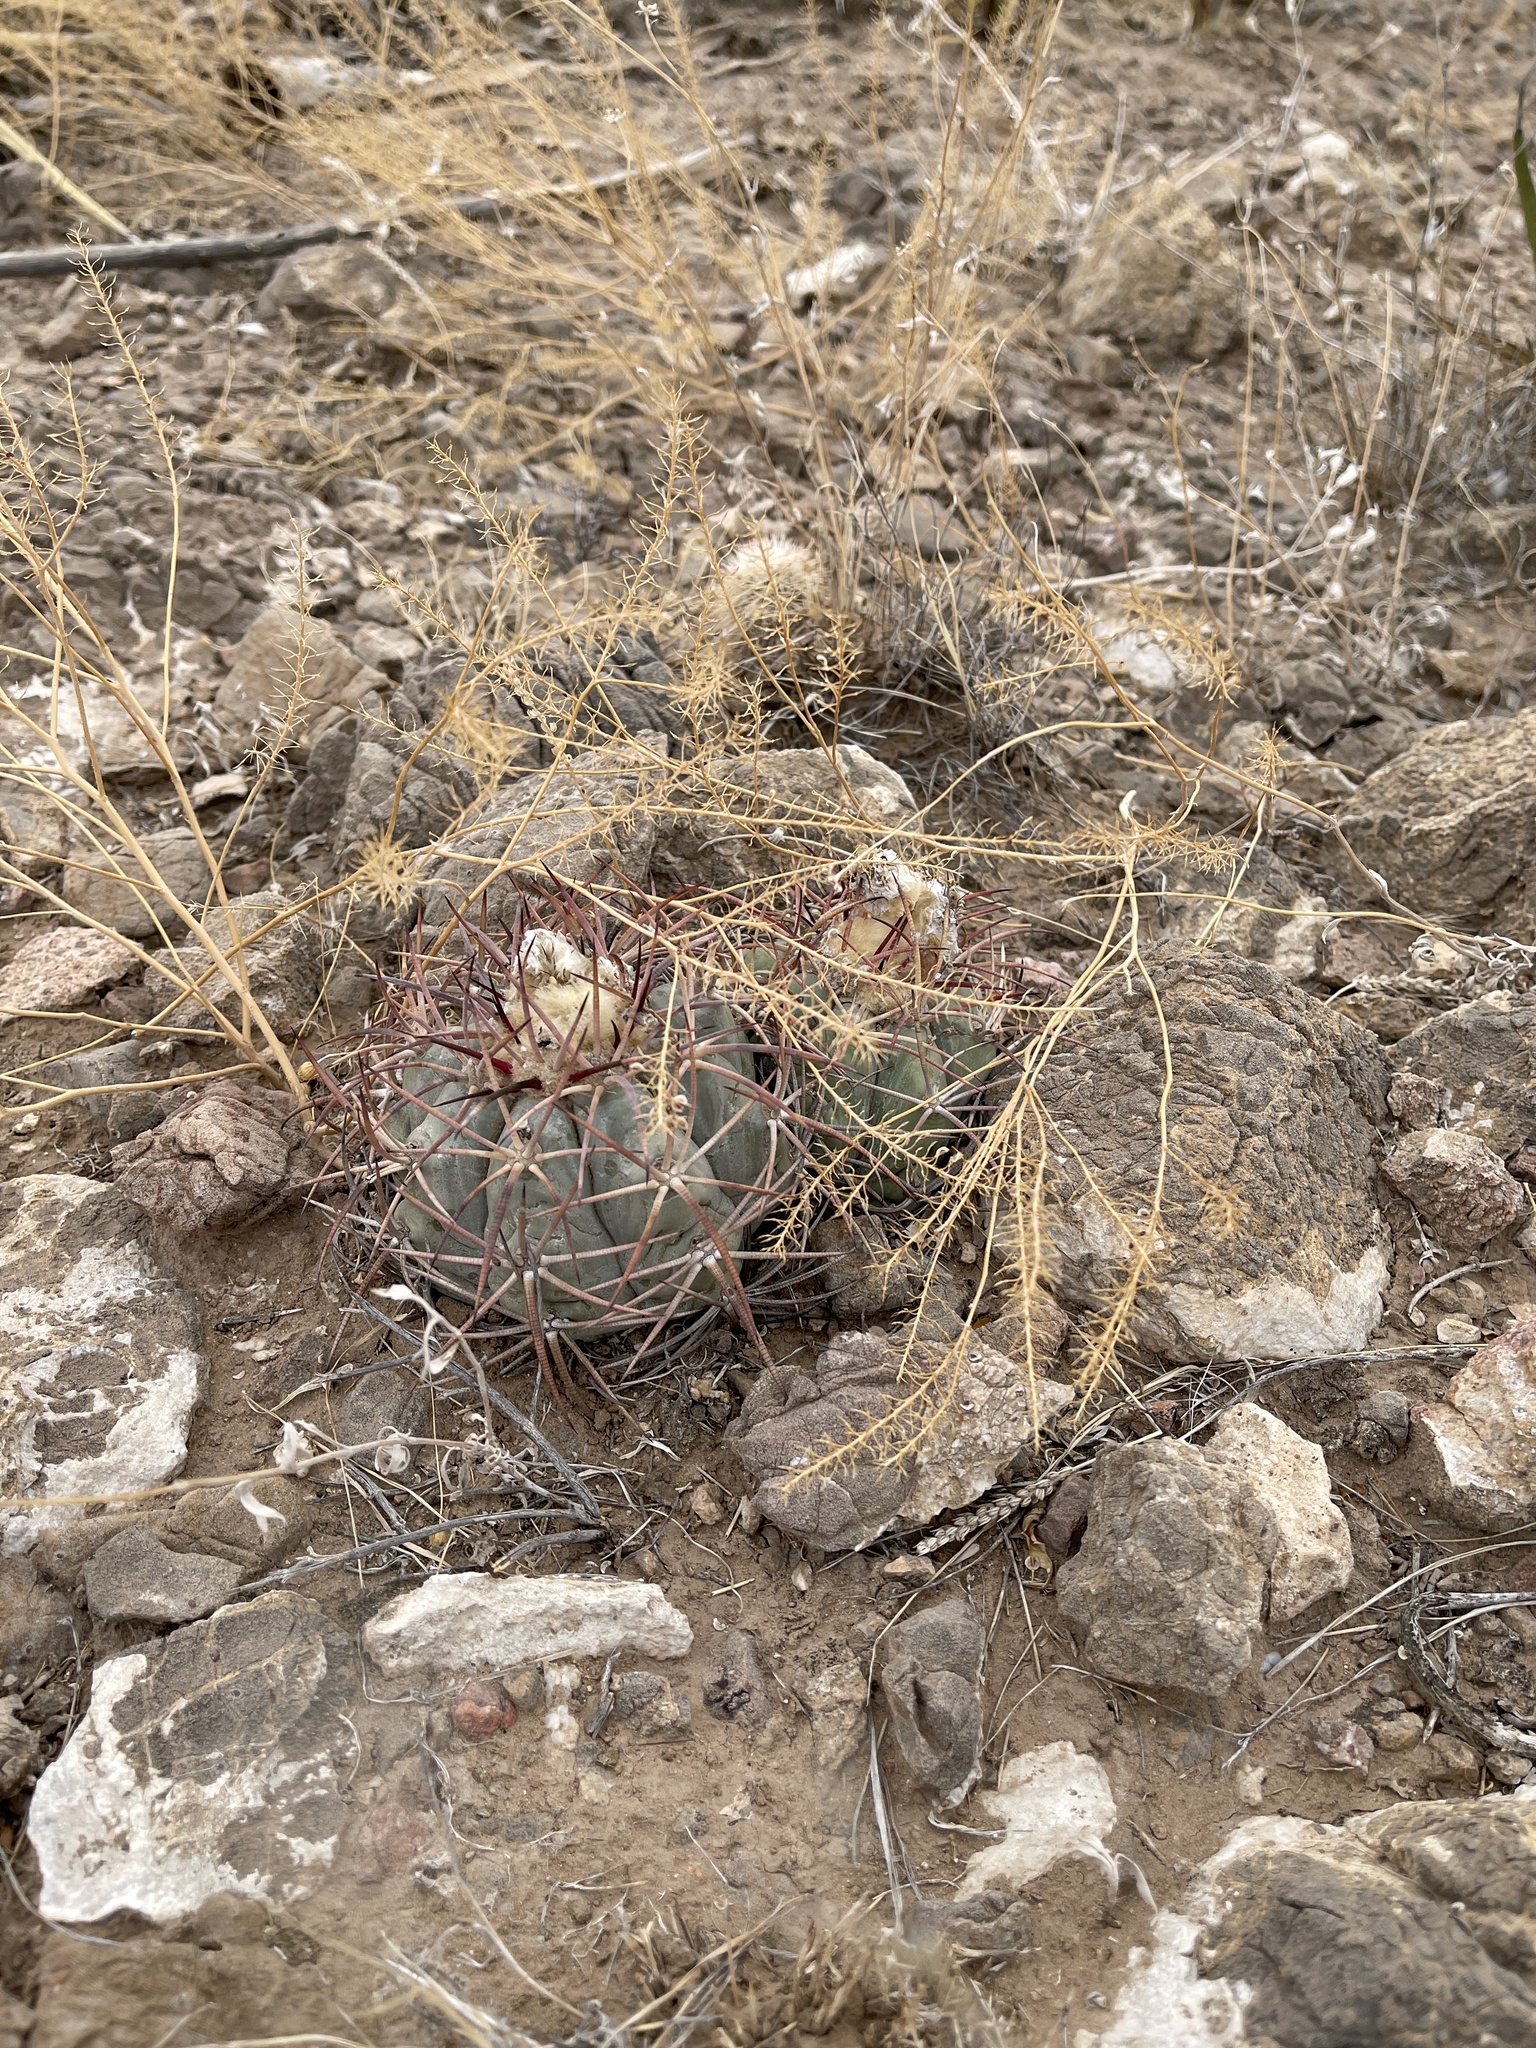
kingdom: Plantae
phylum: Tracheophyta
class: Magnoliopsida
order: Caryophyllales
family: Cactaceae
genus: Echinocactus
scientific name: Echinocactus horizonthalonius
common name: Devilshead
